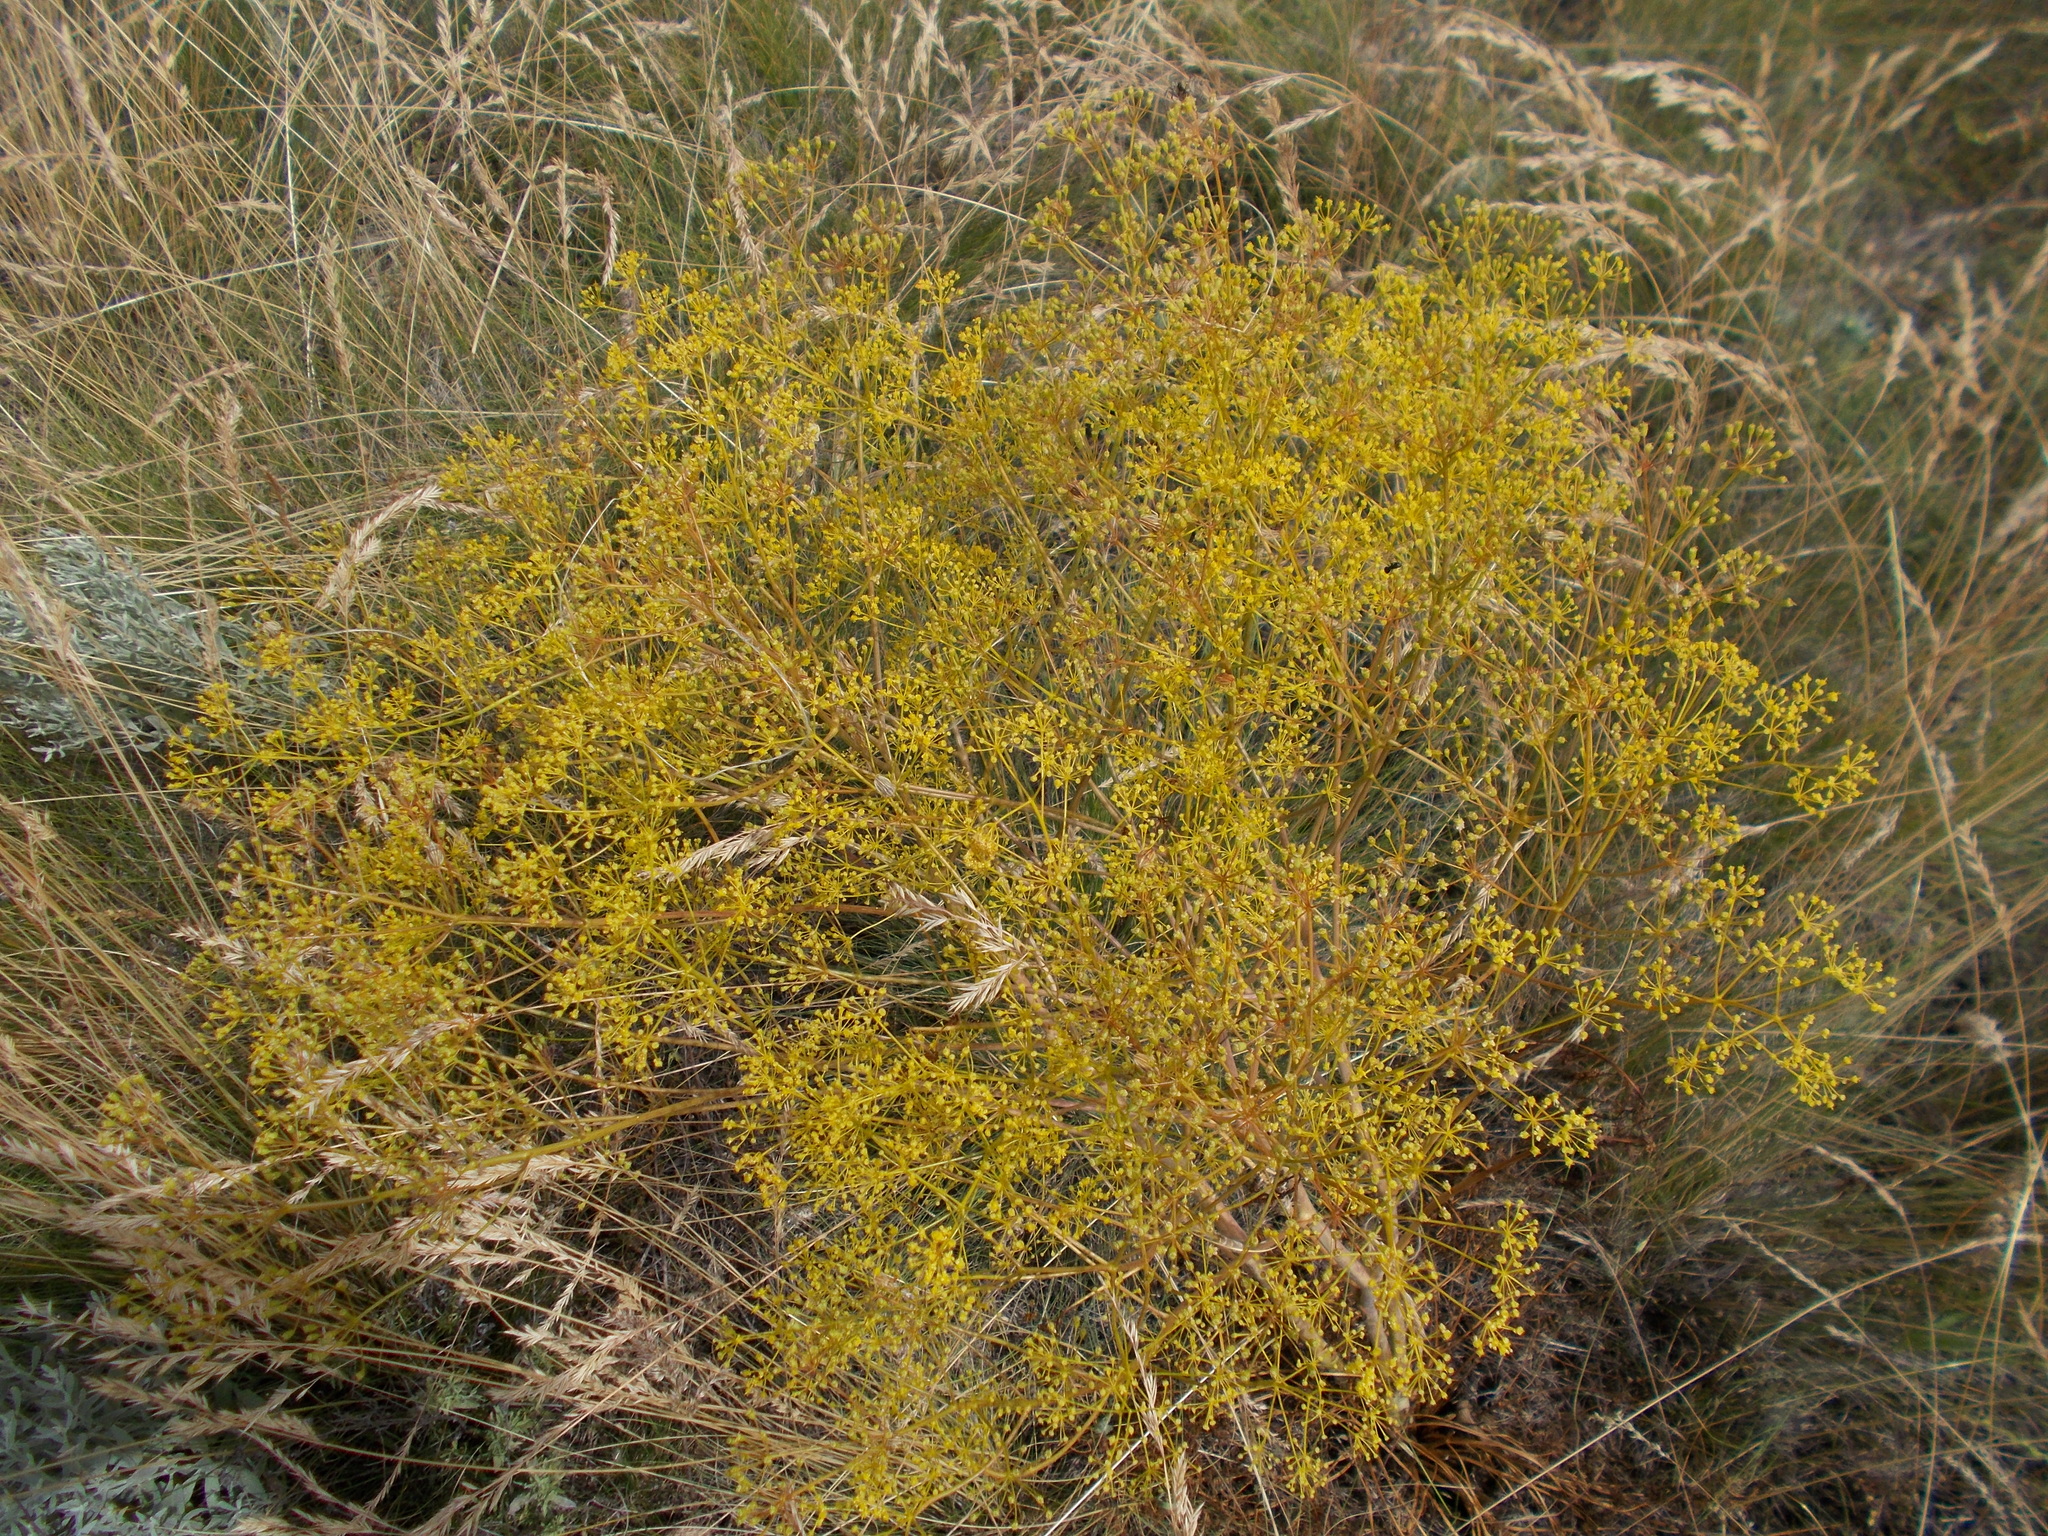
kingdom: Plantae
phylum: Tracheophyta
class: Magnoliopsida
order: Apiales
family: Apiaceae
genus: Ferula
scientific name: Ferula caspica
